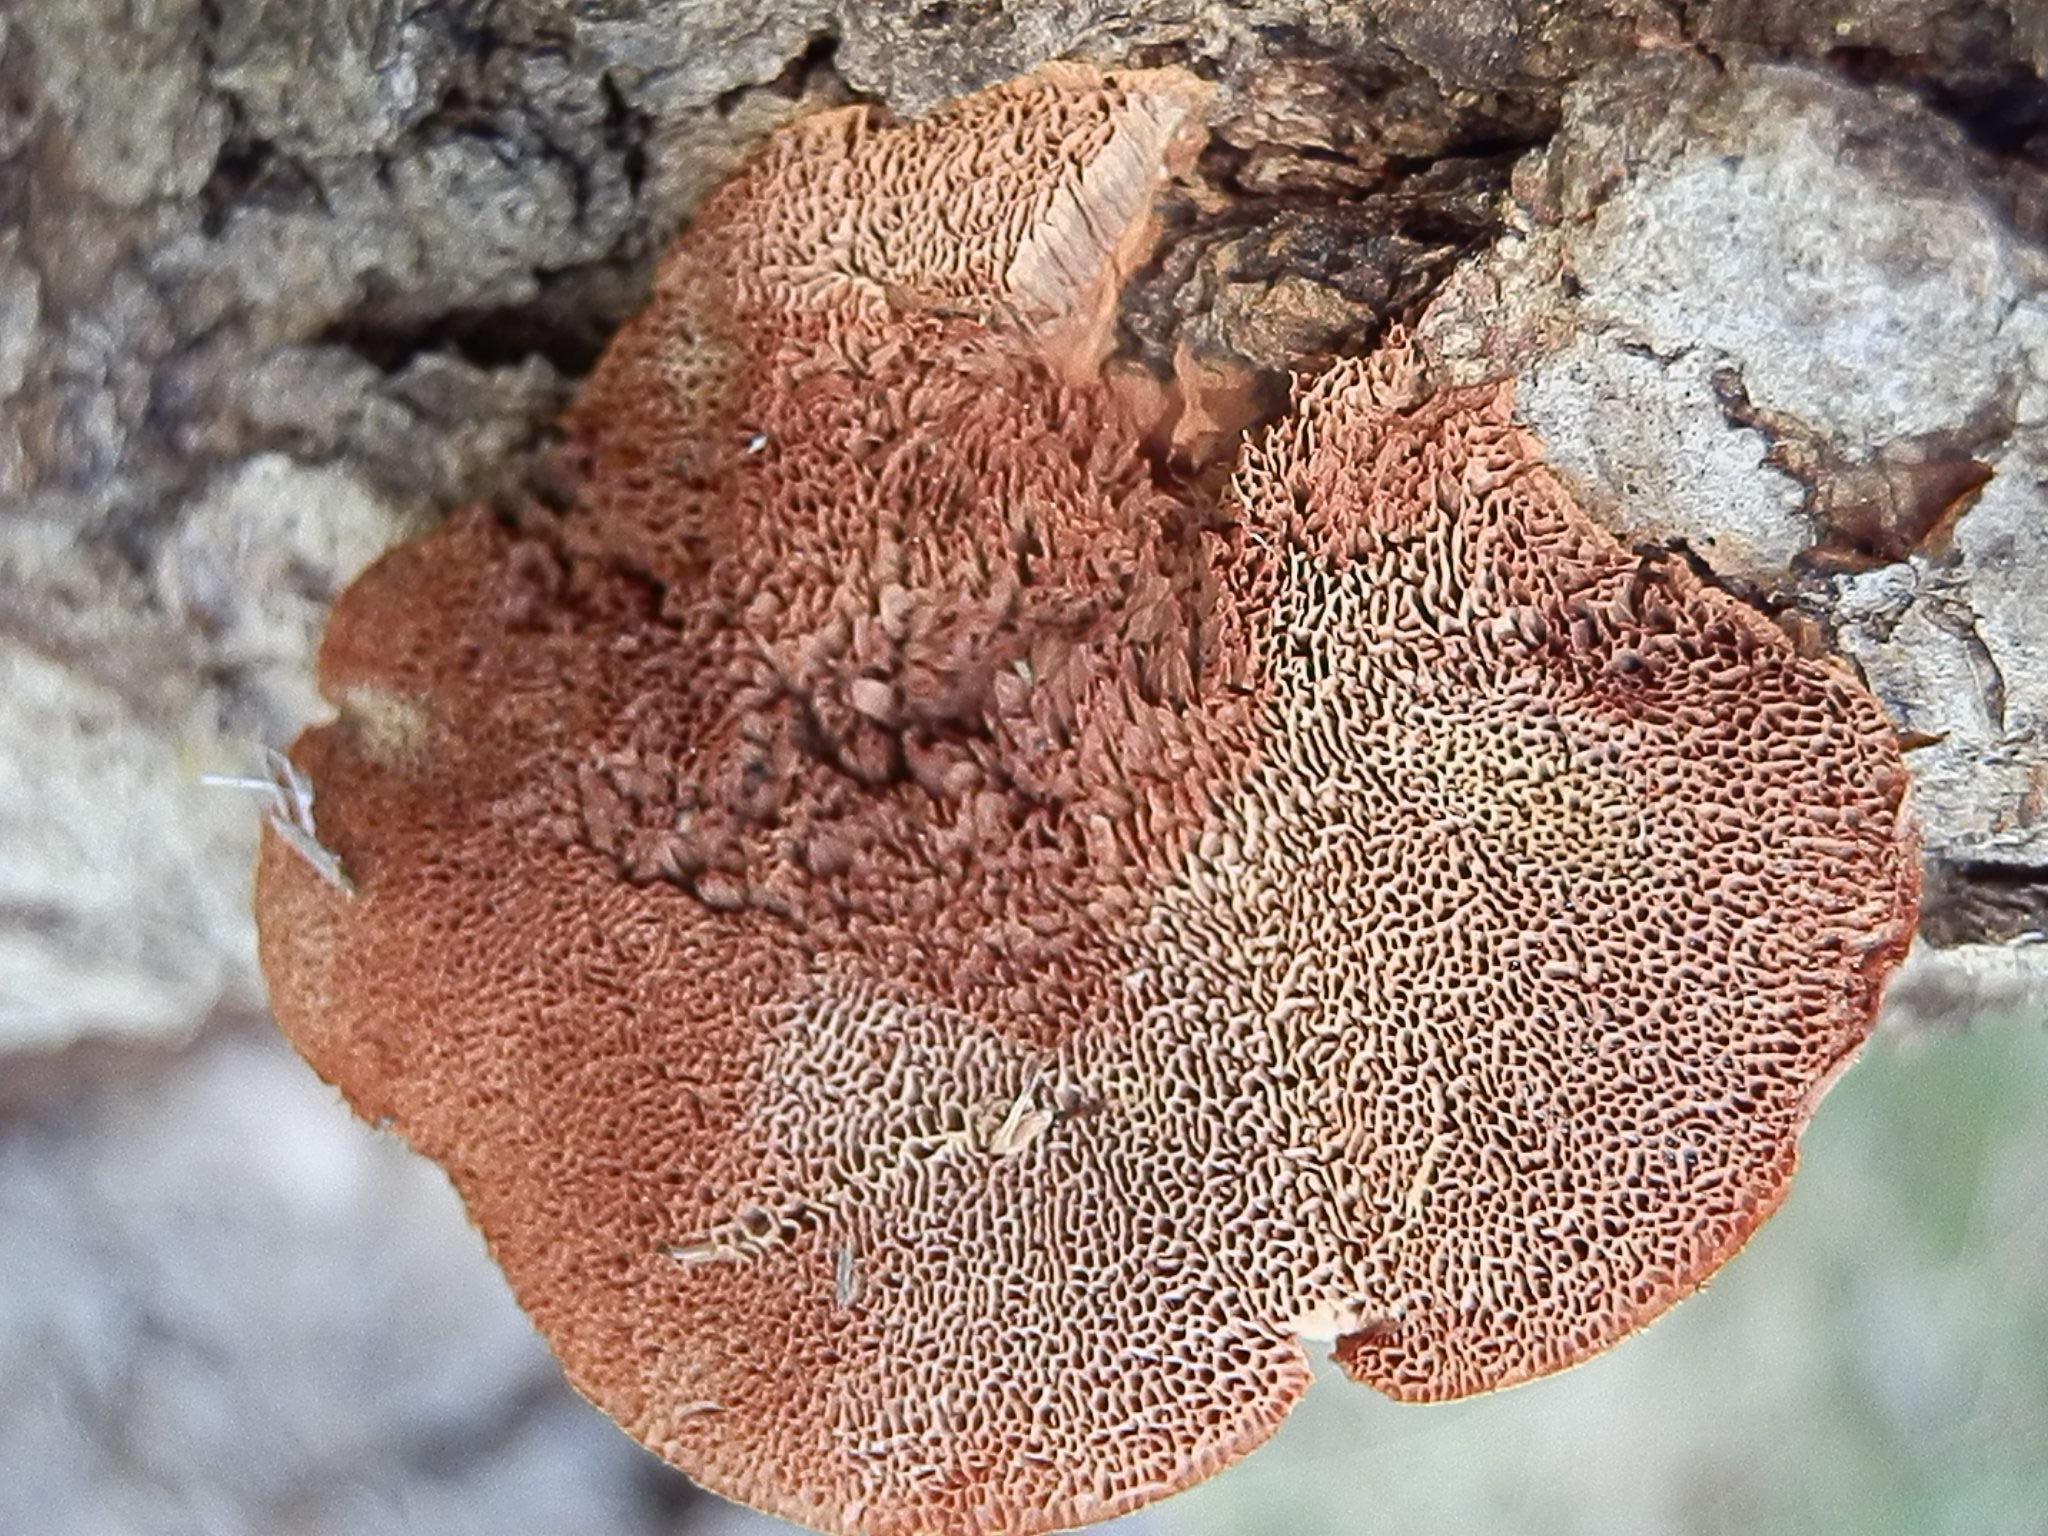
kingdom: Fungi
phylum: Basidiomycota
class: Agaricomycetes
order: Polyporales
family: Phanerochaetaceae
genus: Hapalopilus
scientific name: Hapalopilus rutilans
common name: Tender nesting polypore
